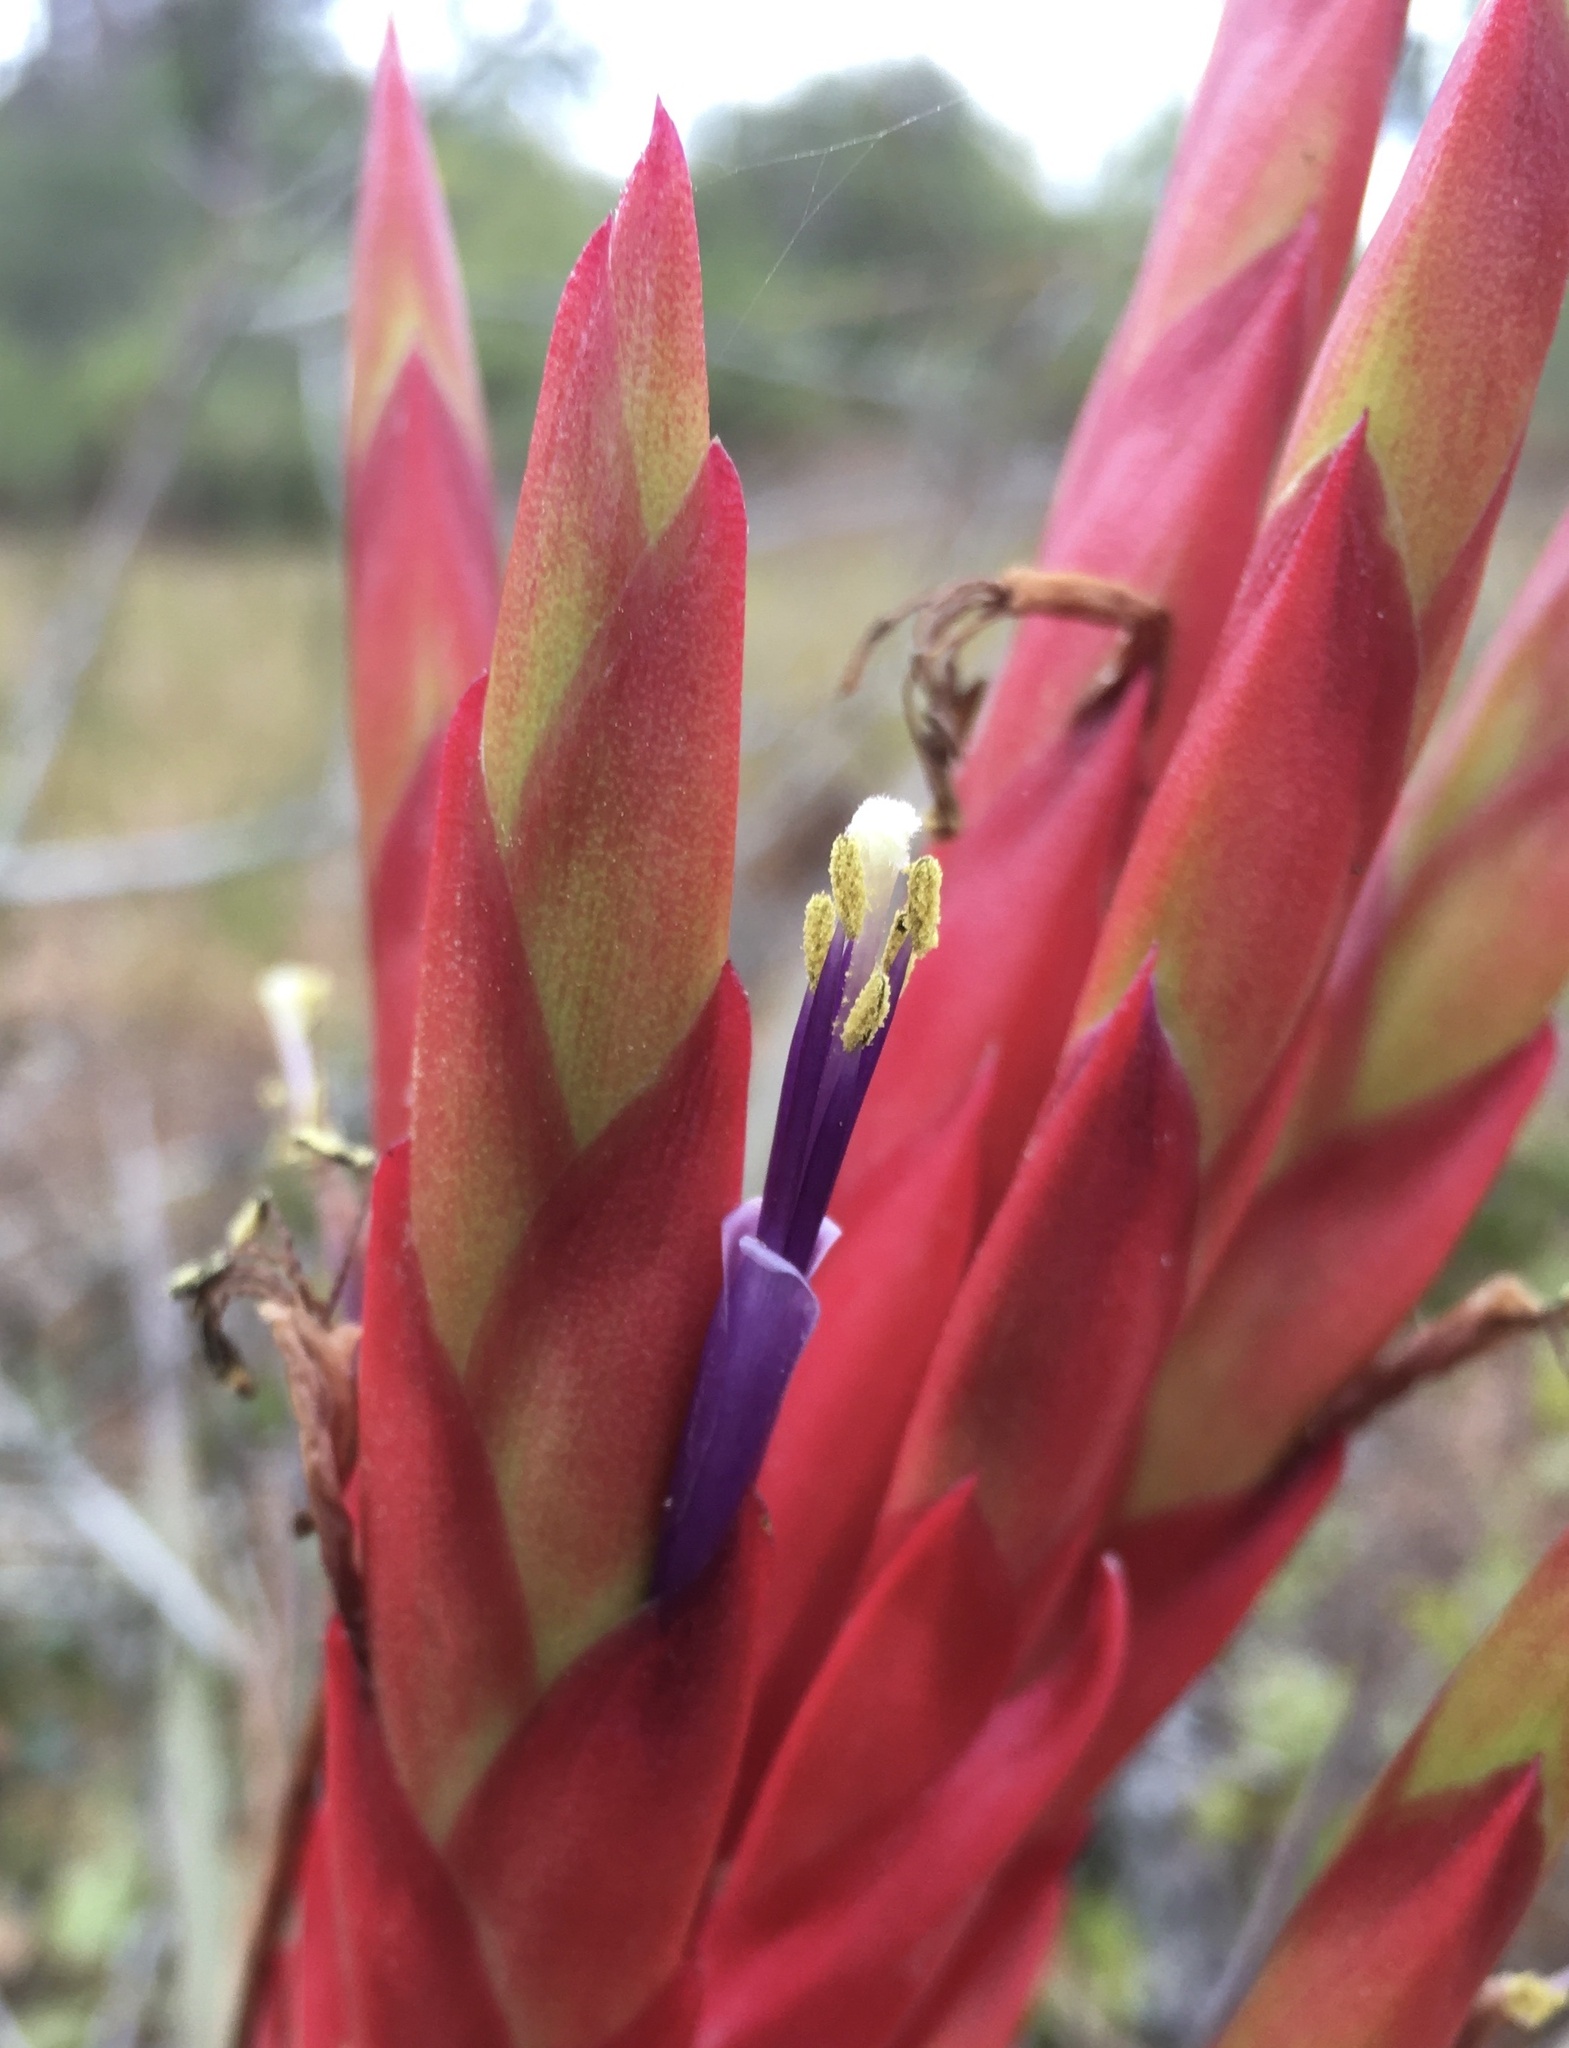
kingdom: Plantae
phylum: Tracheophyta
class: Liliopsida
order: Poales
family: Bromeliaceae
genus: Tillandsia
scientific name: Tillandsia fasciculata
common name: Giant airplant
